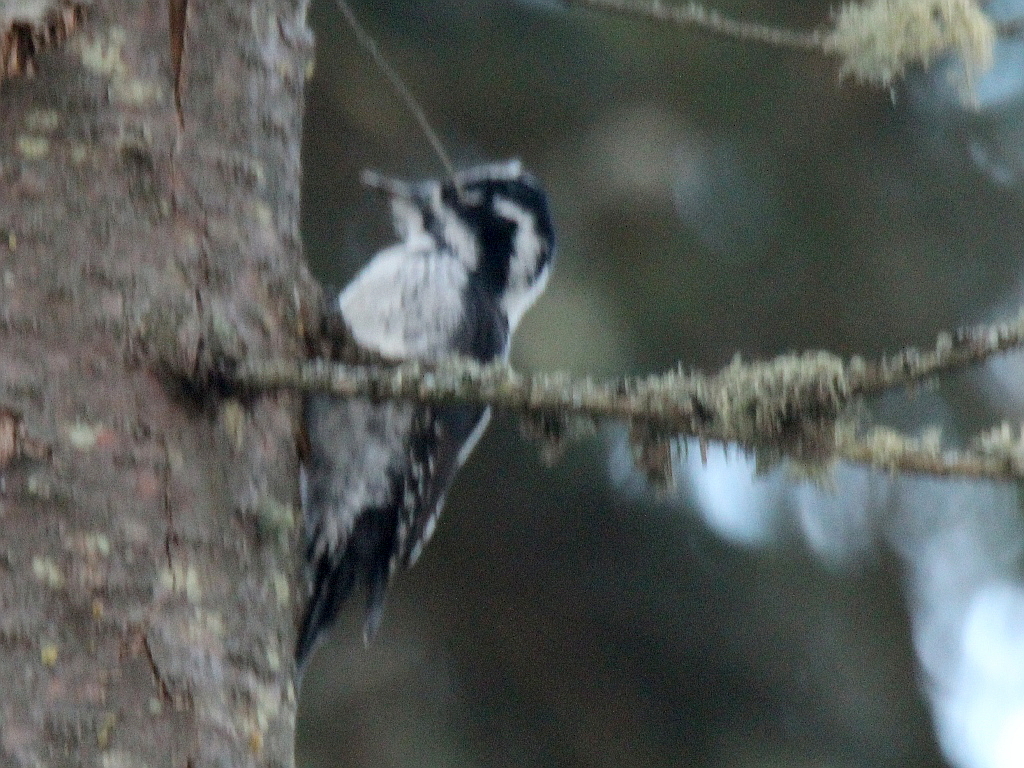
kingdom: Animalia
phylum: Chordata
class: Aves
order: Piciformes
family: Picidae
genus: Picoides
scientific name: Picoides tridactylus
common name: Eurasian three-toed woodpecker
